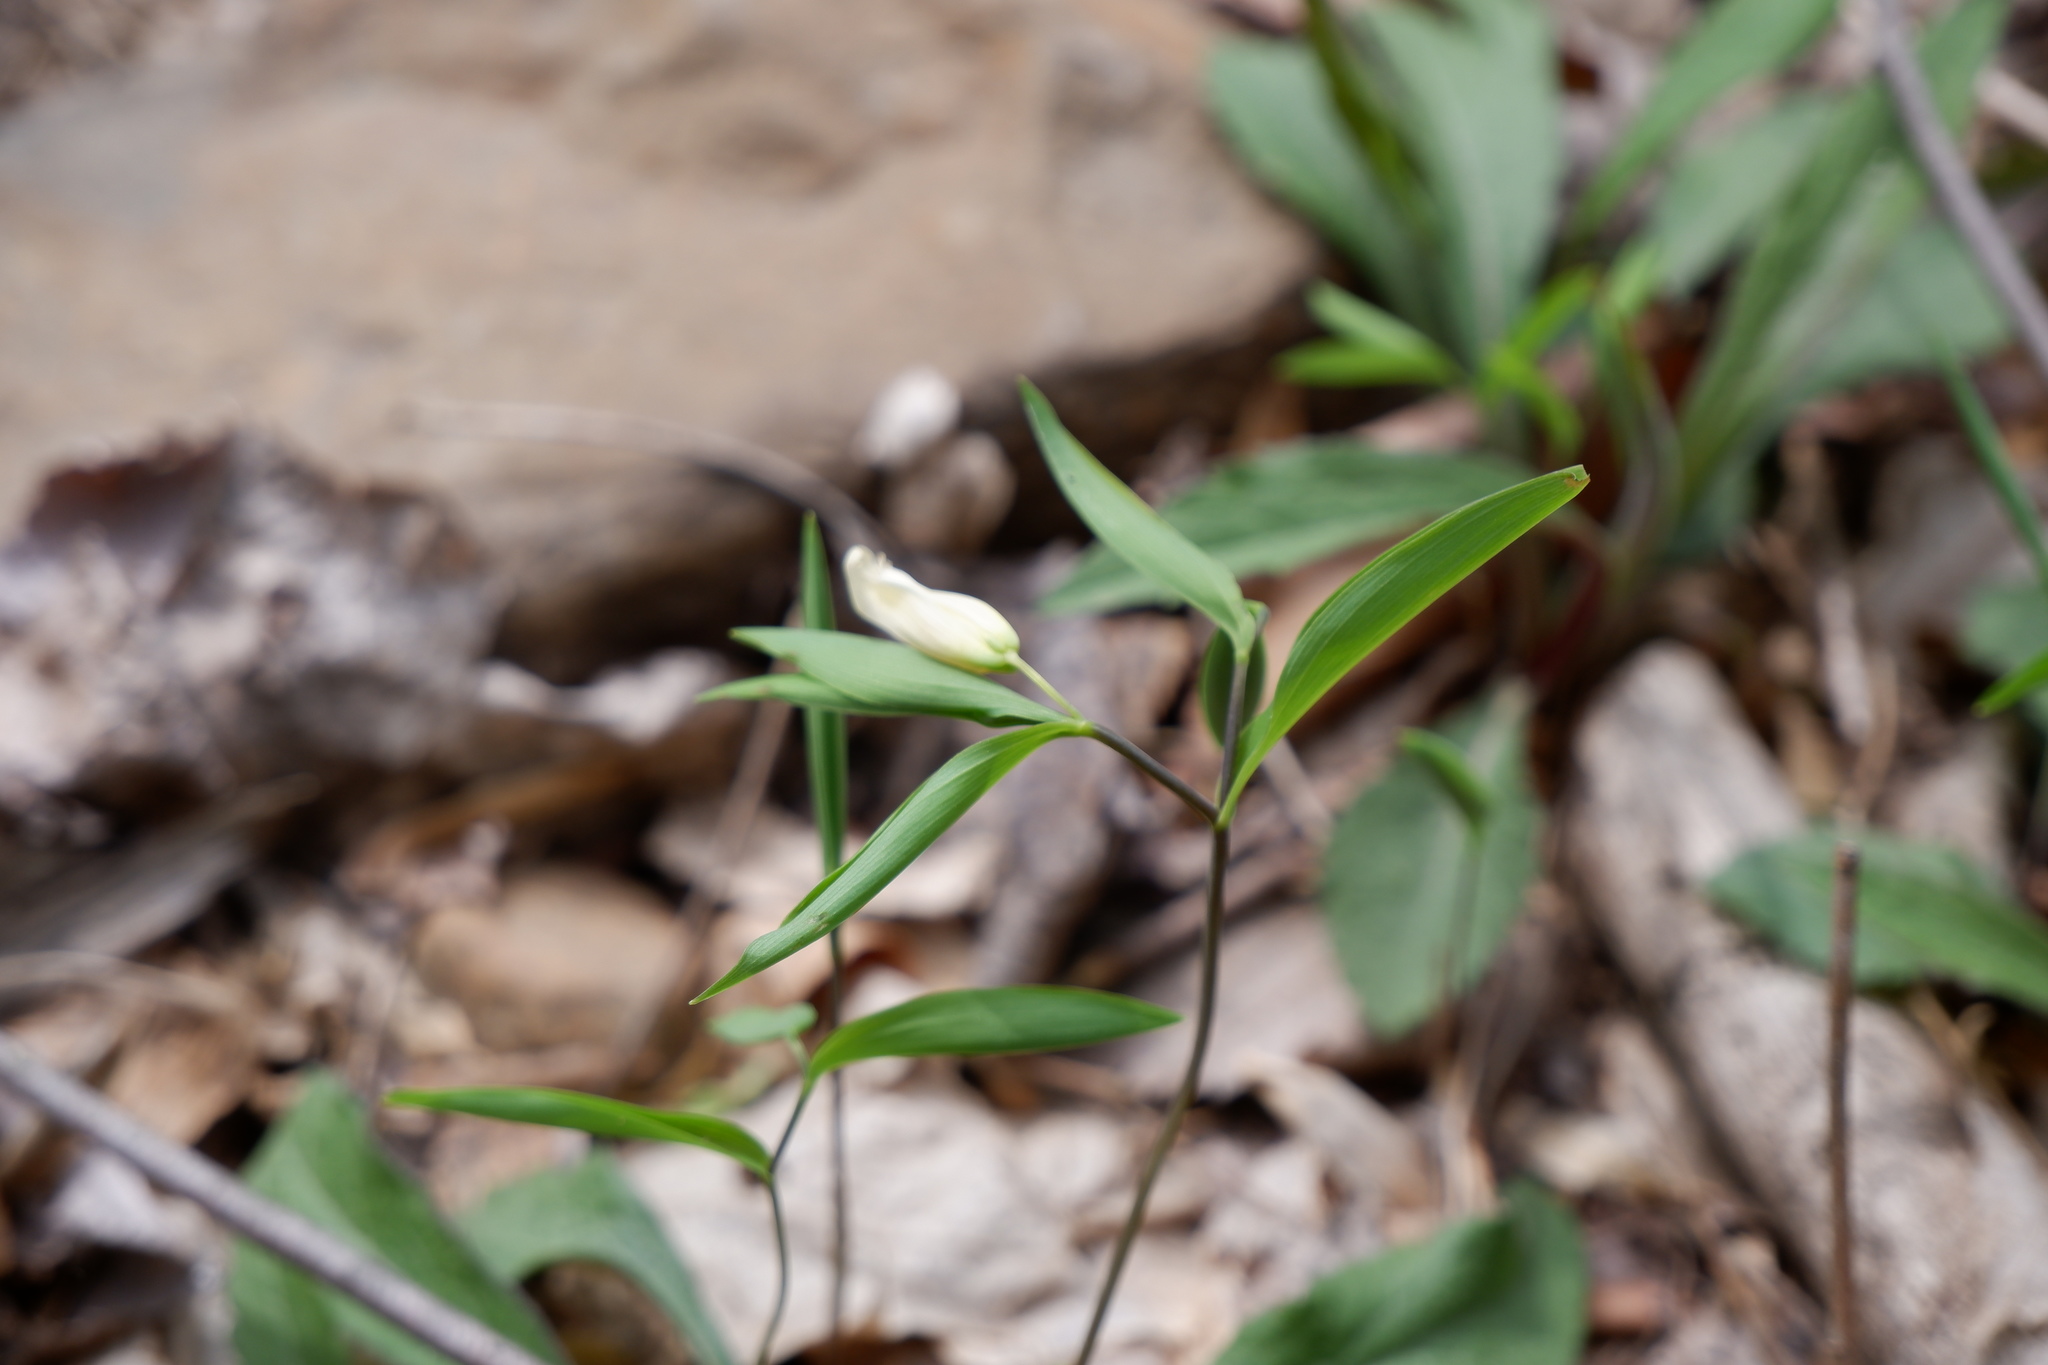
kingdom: Plantae
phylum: Tracheophyta
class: Liliopsida
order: Liliales
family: Colchicaceae
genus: Uvularia
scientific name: Uvularia sessilifolia
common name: Straw-lily
